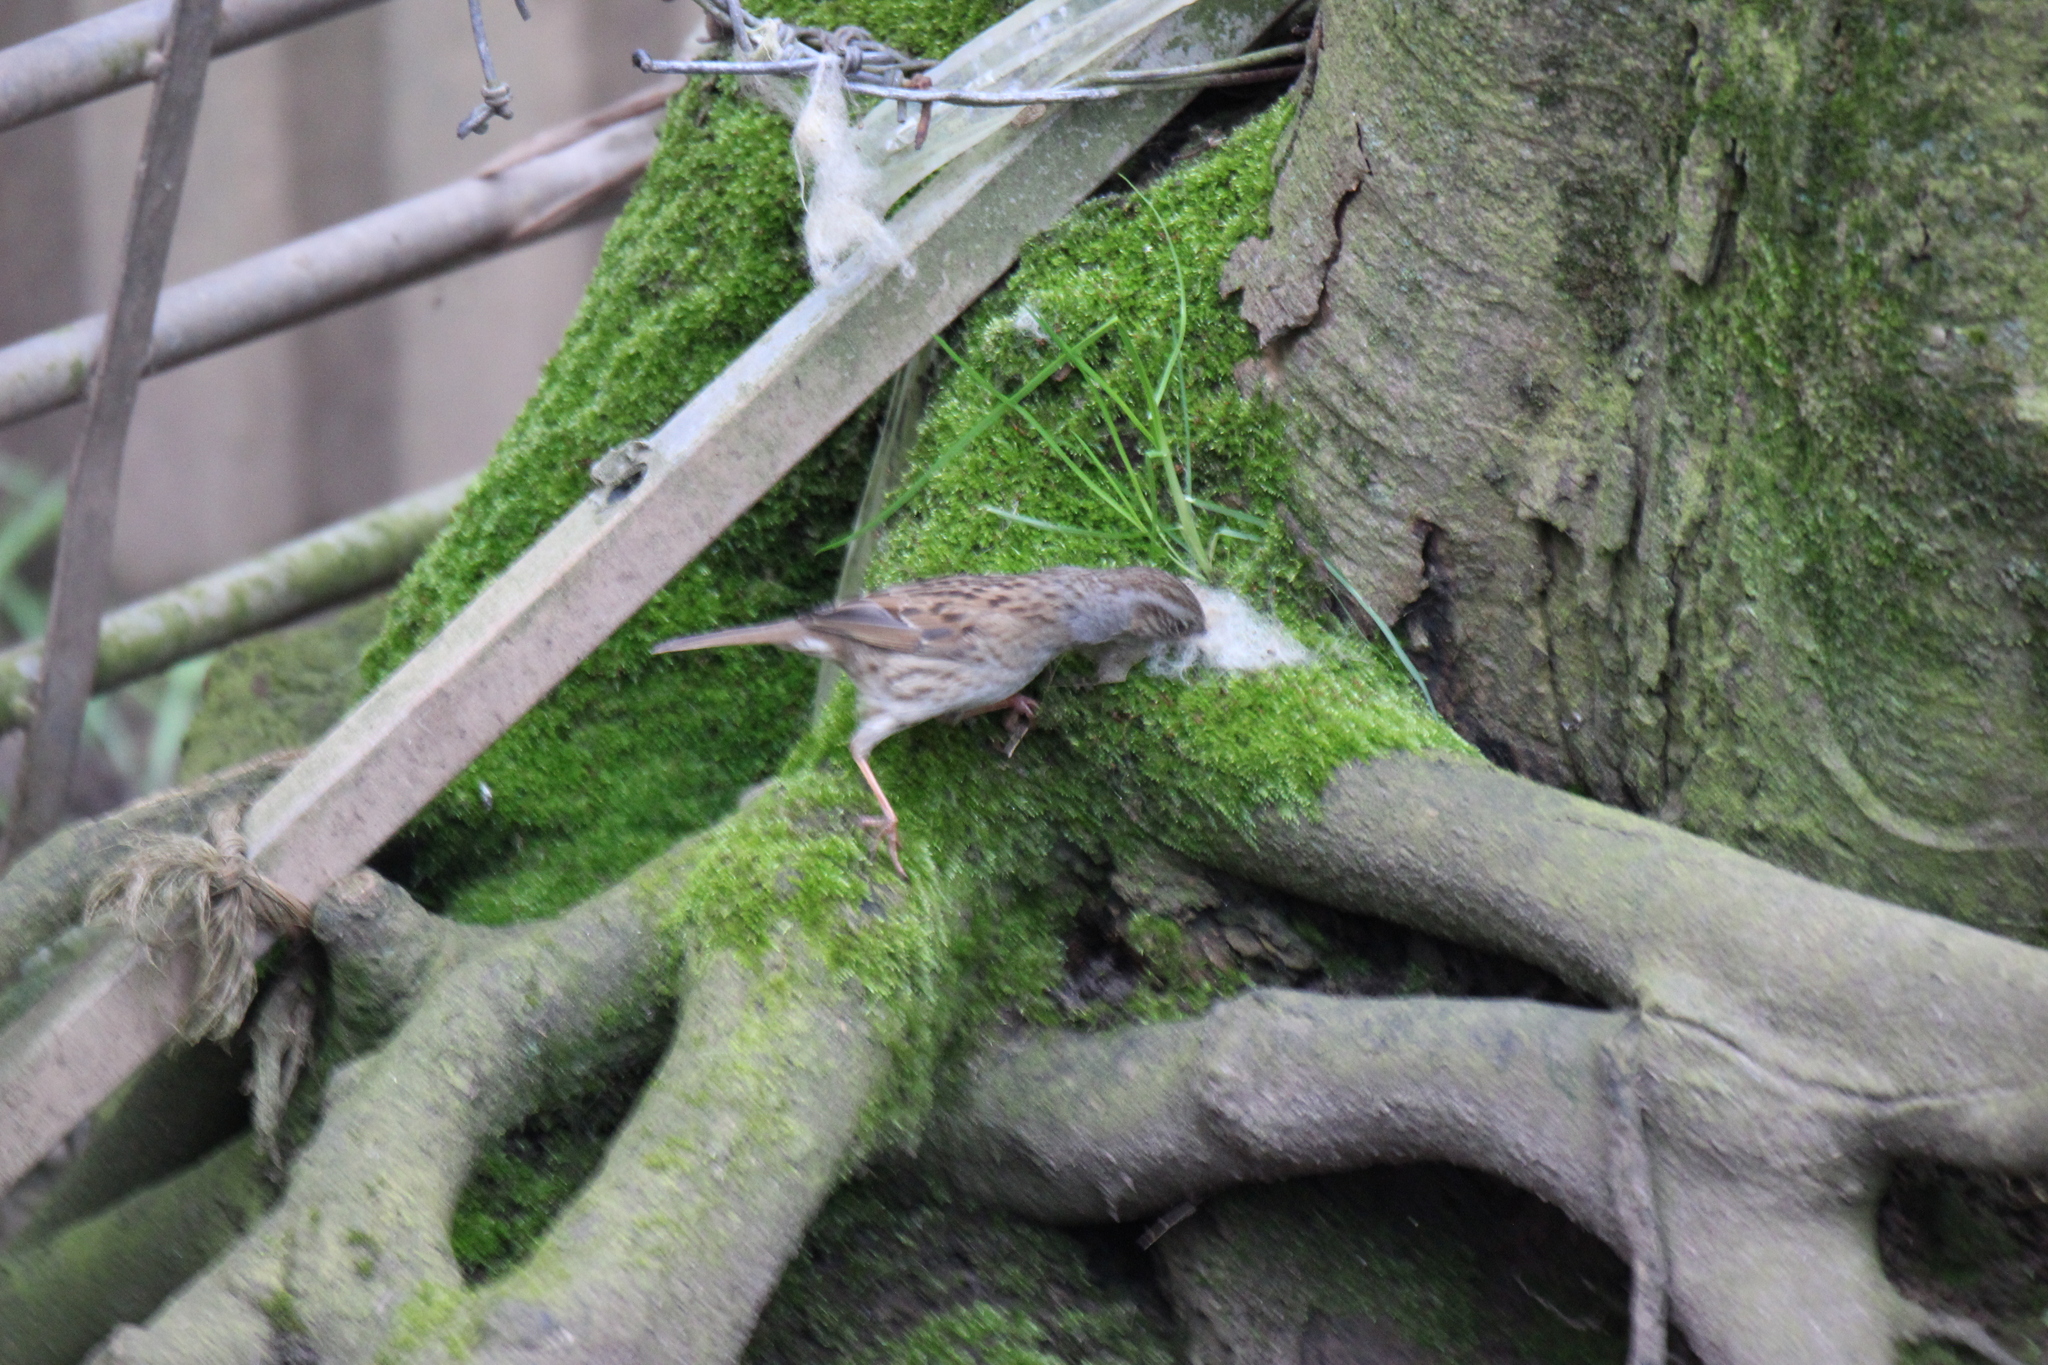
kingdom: Animalia
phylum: Chordata
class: Aves
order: Passeriformes
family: Prunellidae
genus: Prunella
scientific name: Prunella modularis
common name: Dunnock
